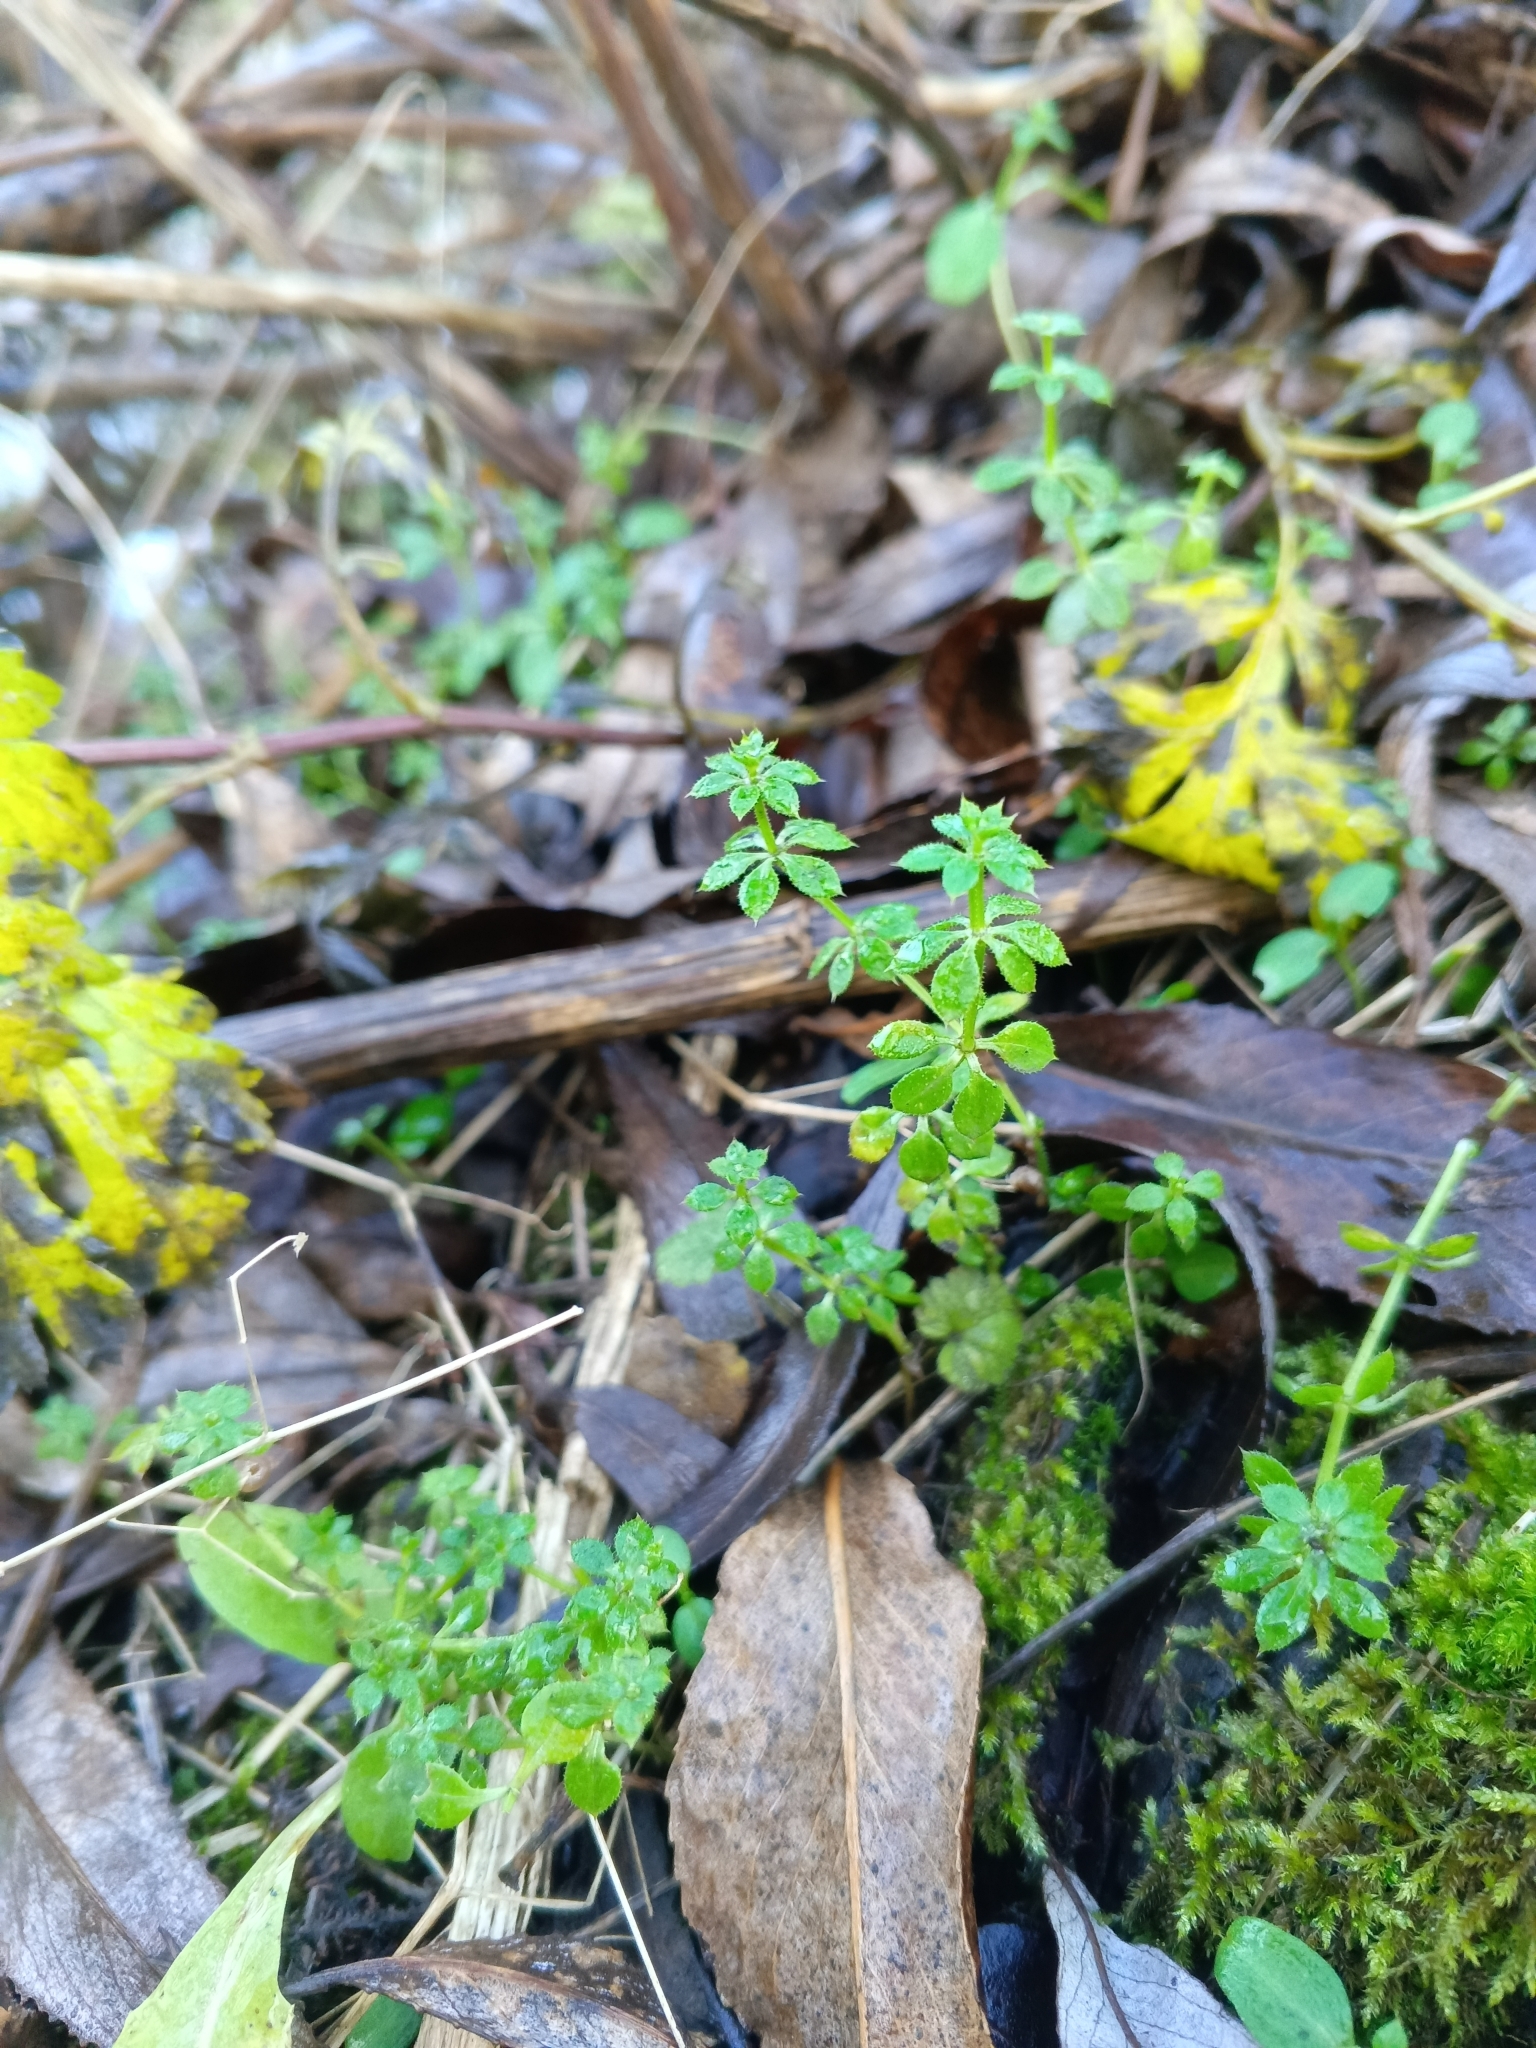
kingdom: Plantae
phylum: Tracheophyta
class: Magnoliopsida
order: Gentianales
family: Rubiaceae
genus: Galium
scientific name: Galium aparine
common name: Cleavers
